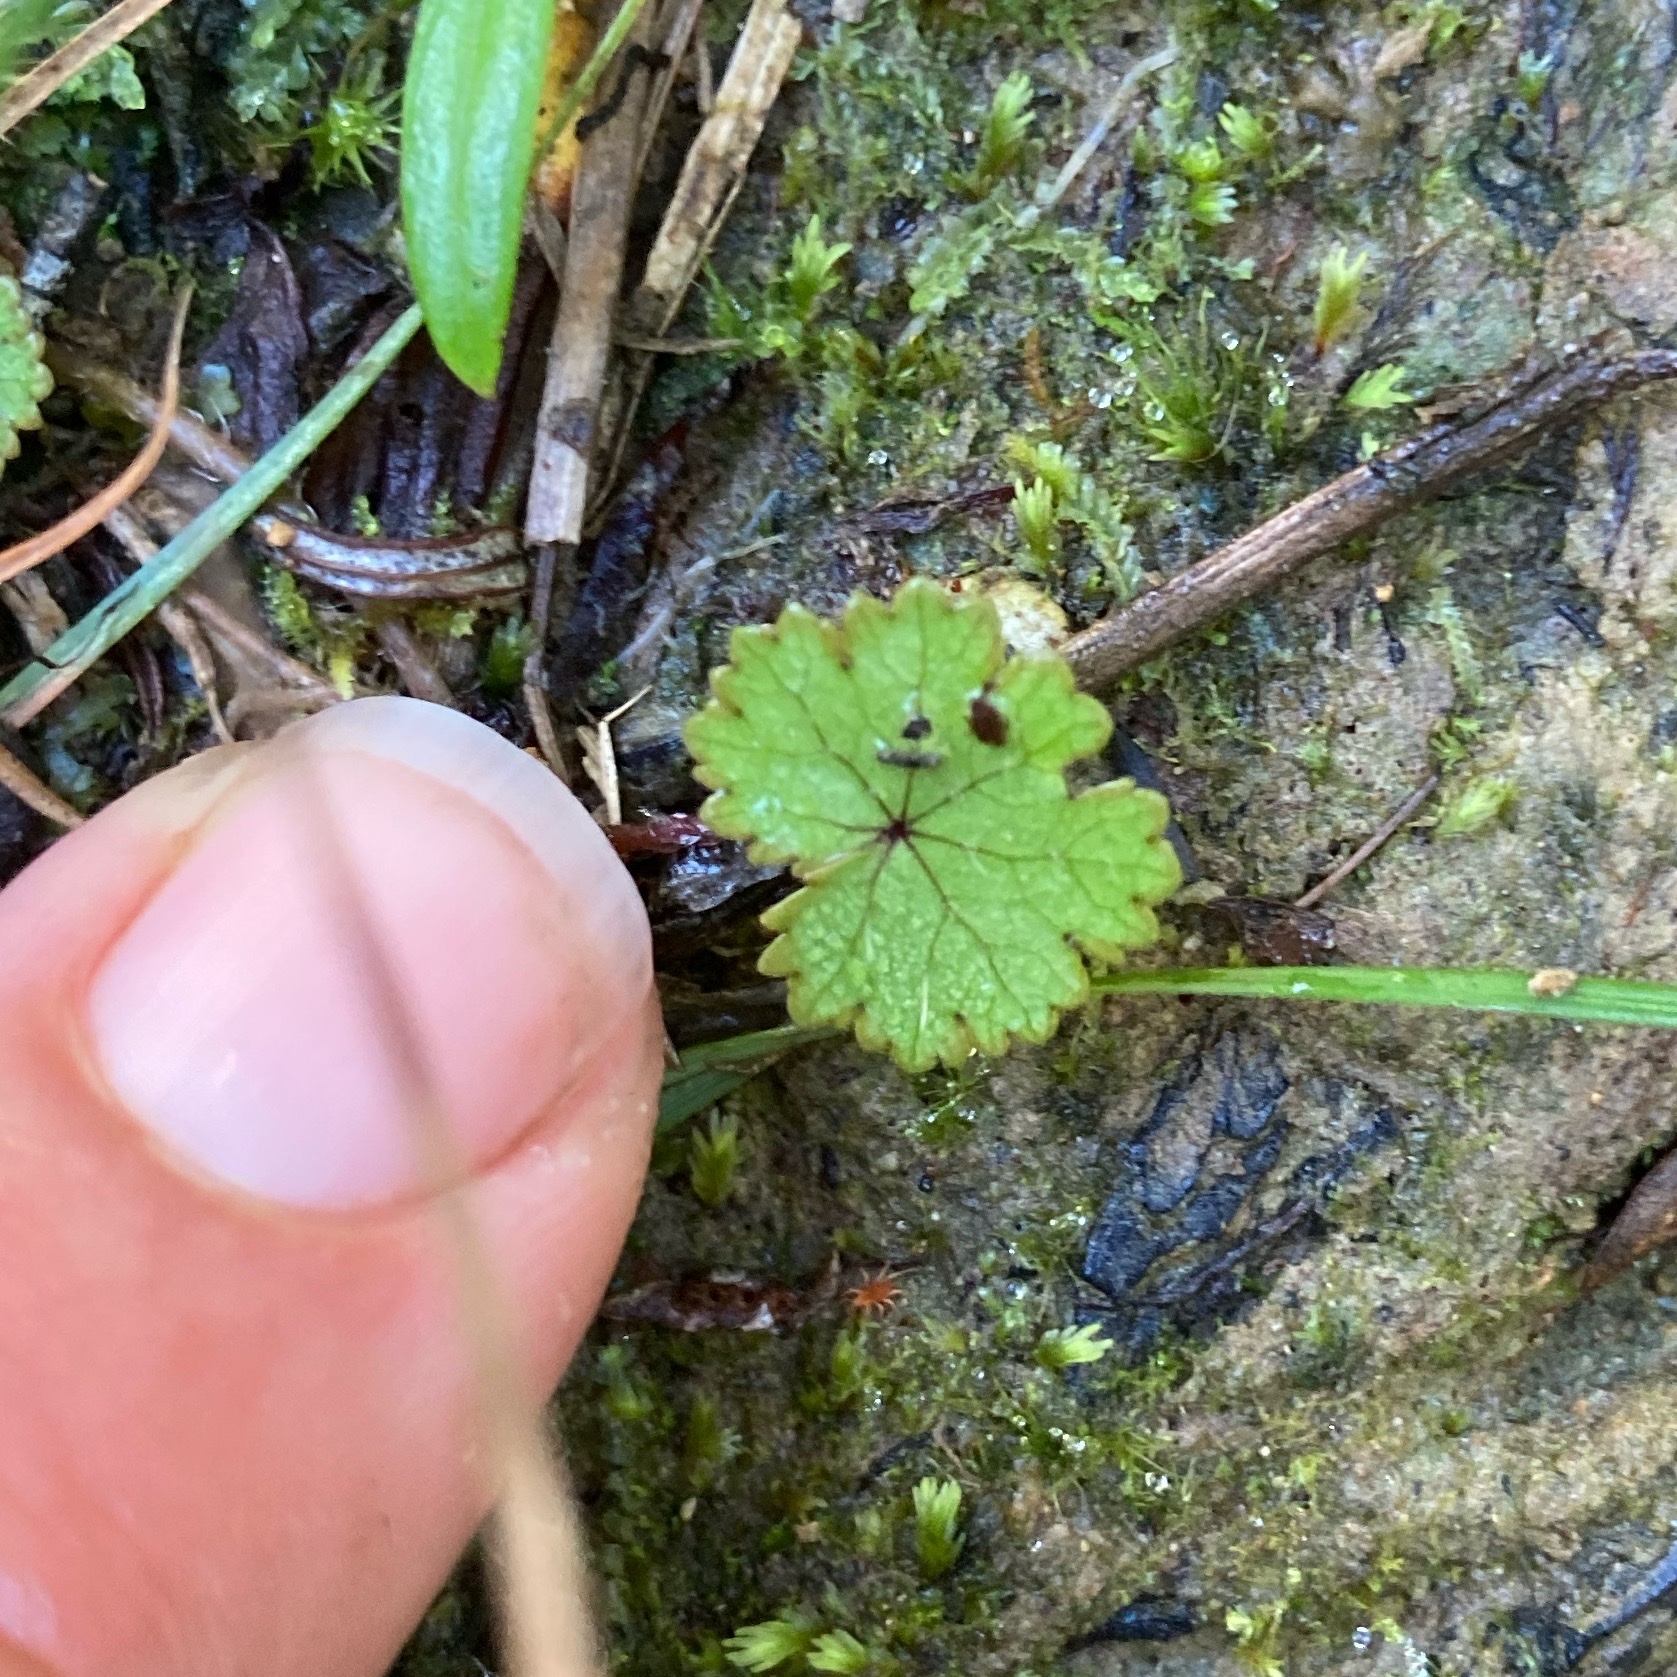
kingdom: Plantae
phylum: Tracheophyta
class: Magnoliopsida
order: Apiales
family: Araliaceae
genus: Hydrocotyle
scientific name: Hydrocotyle moschata
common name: Hairy pennywort
